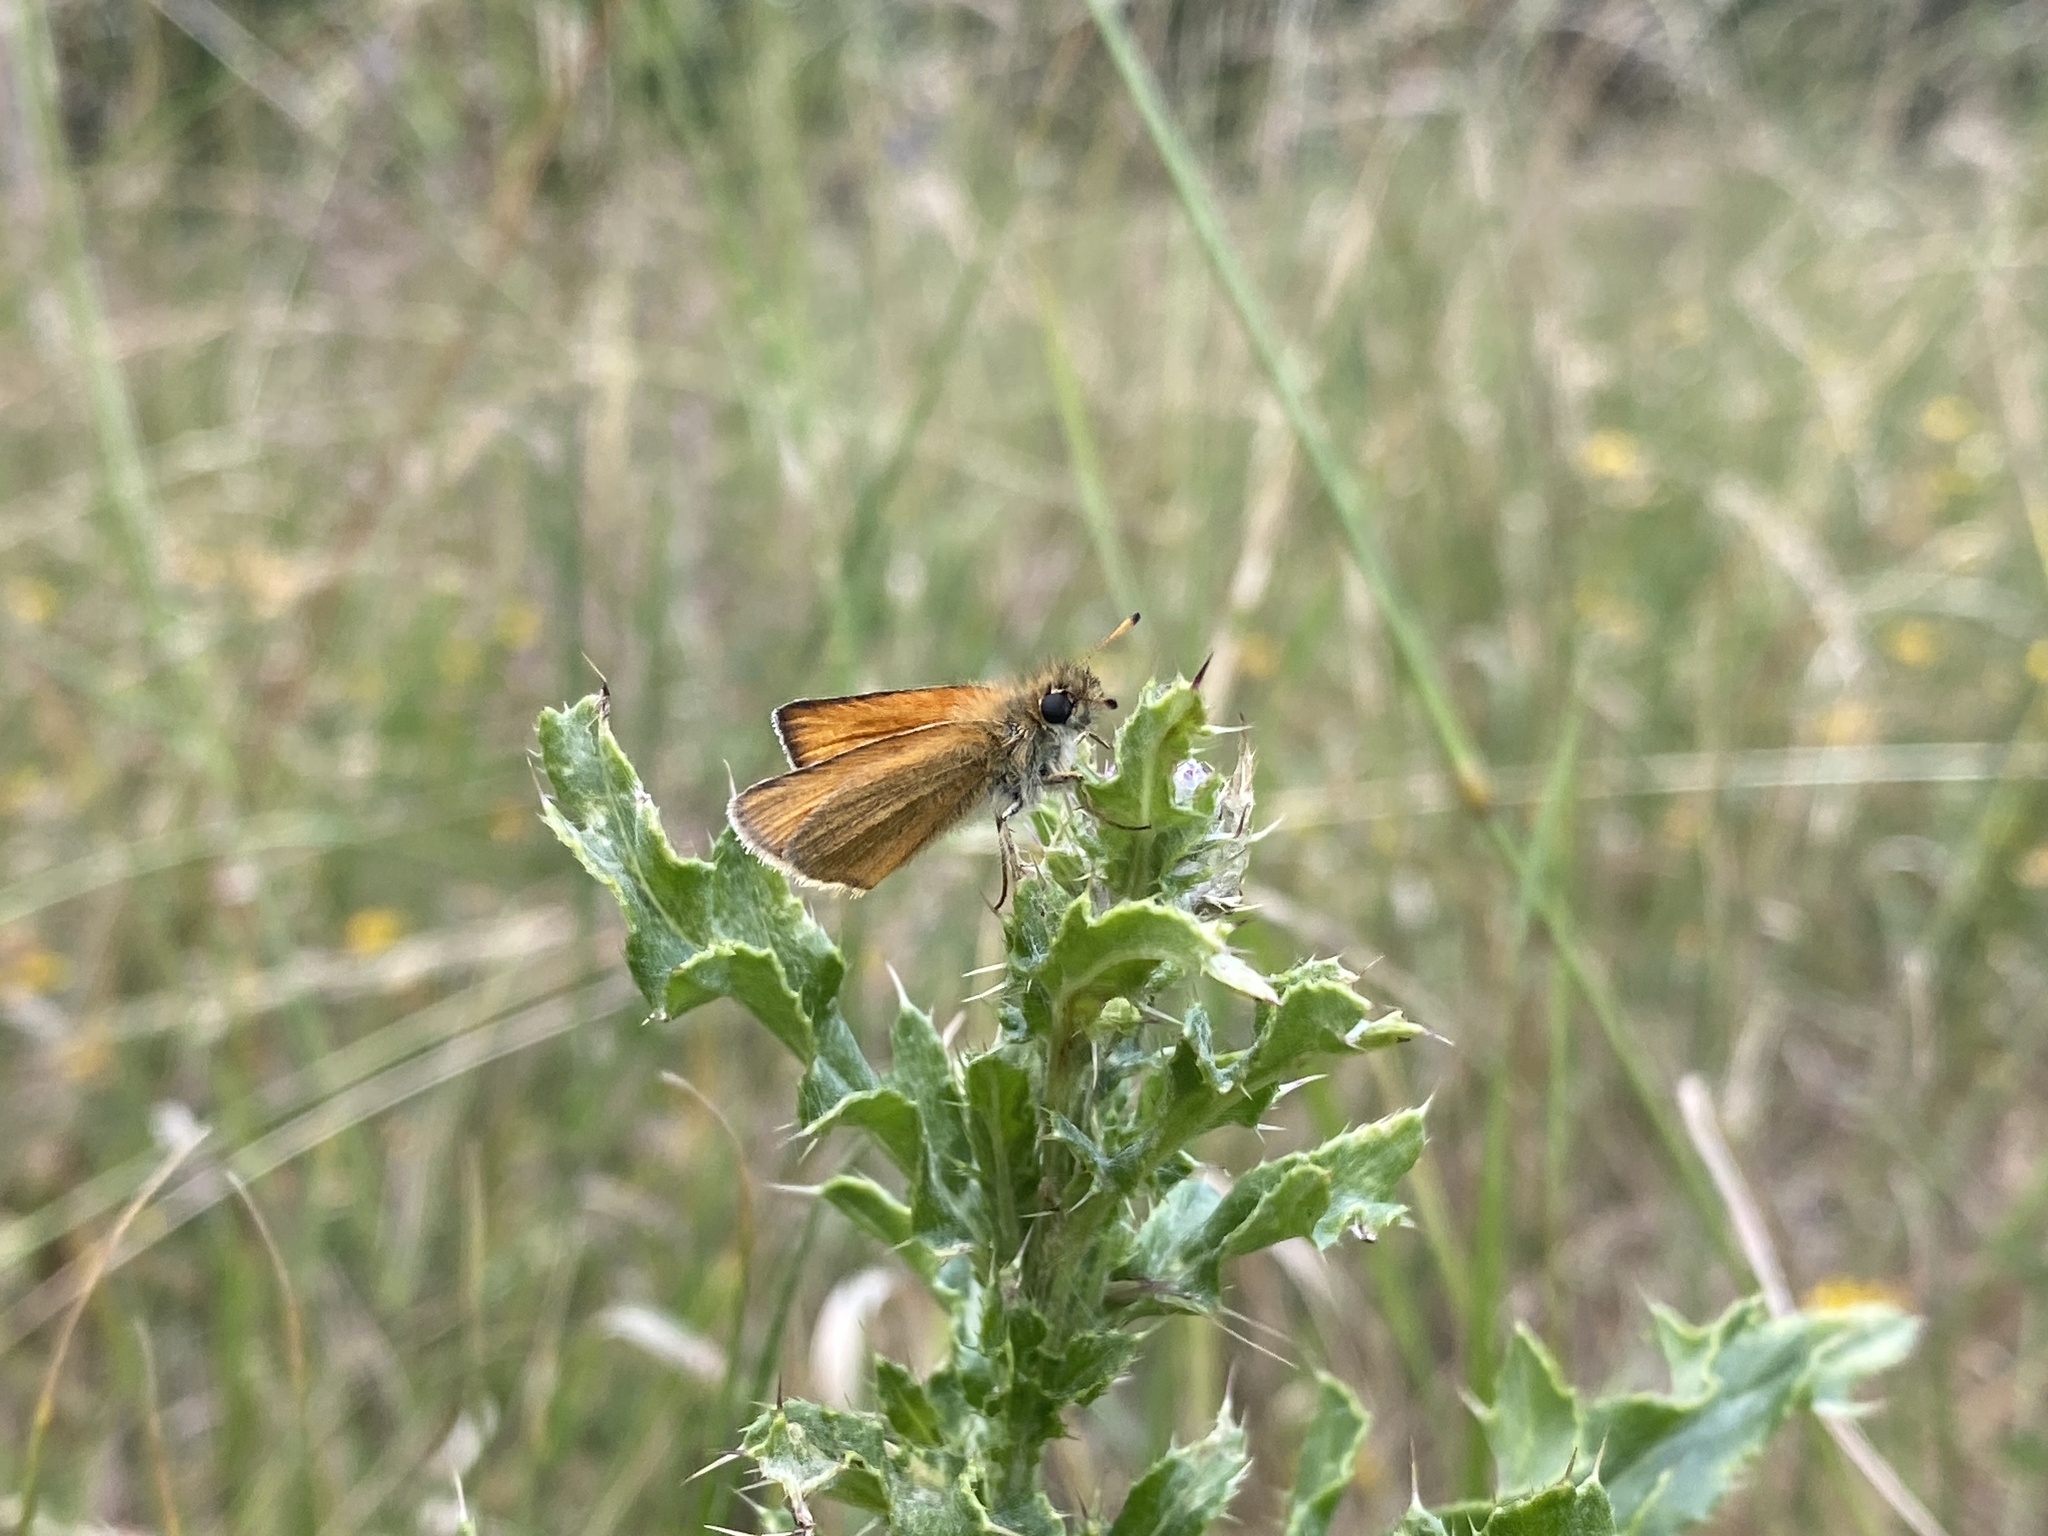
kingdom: Animalia
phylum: Arthropoda
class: Insecta
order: Lepidoptera
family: Hesperiidae
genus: Thymelicus
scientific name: Thymelicus lineola
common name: Essex skipper
